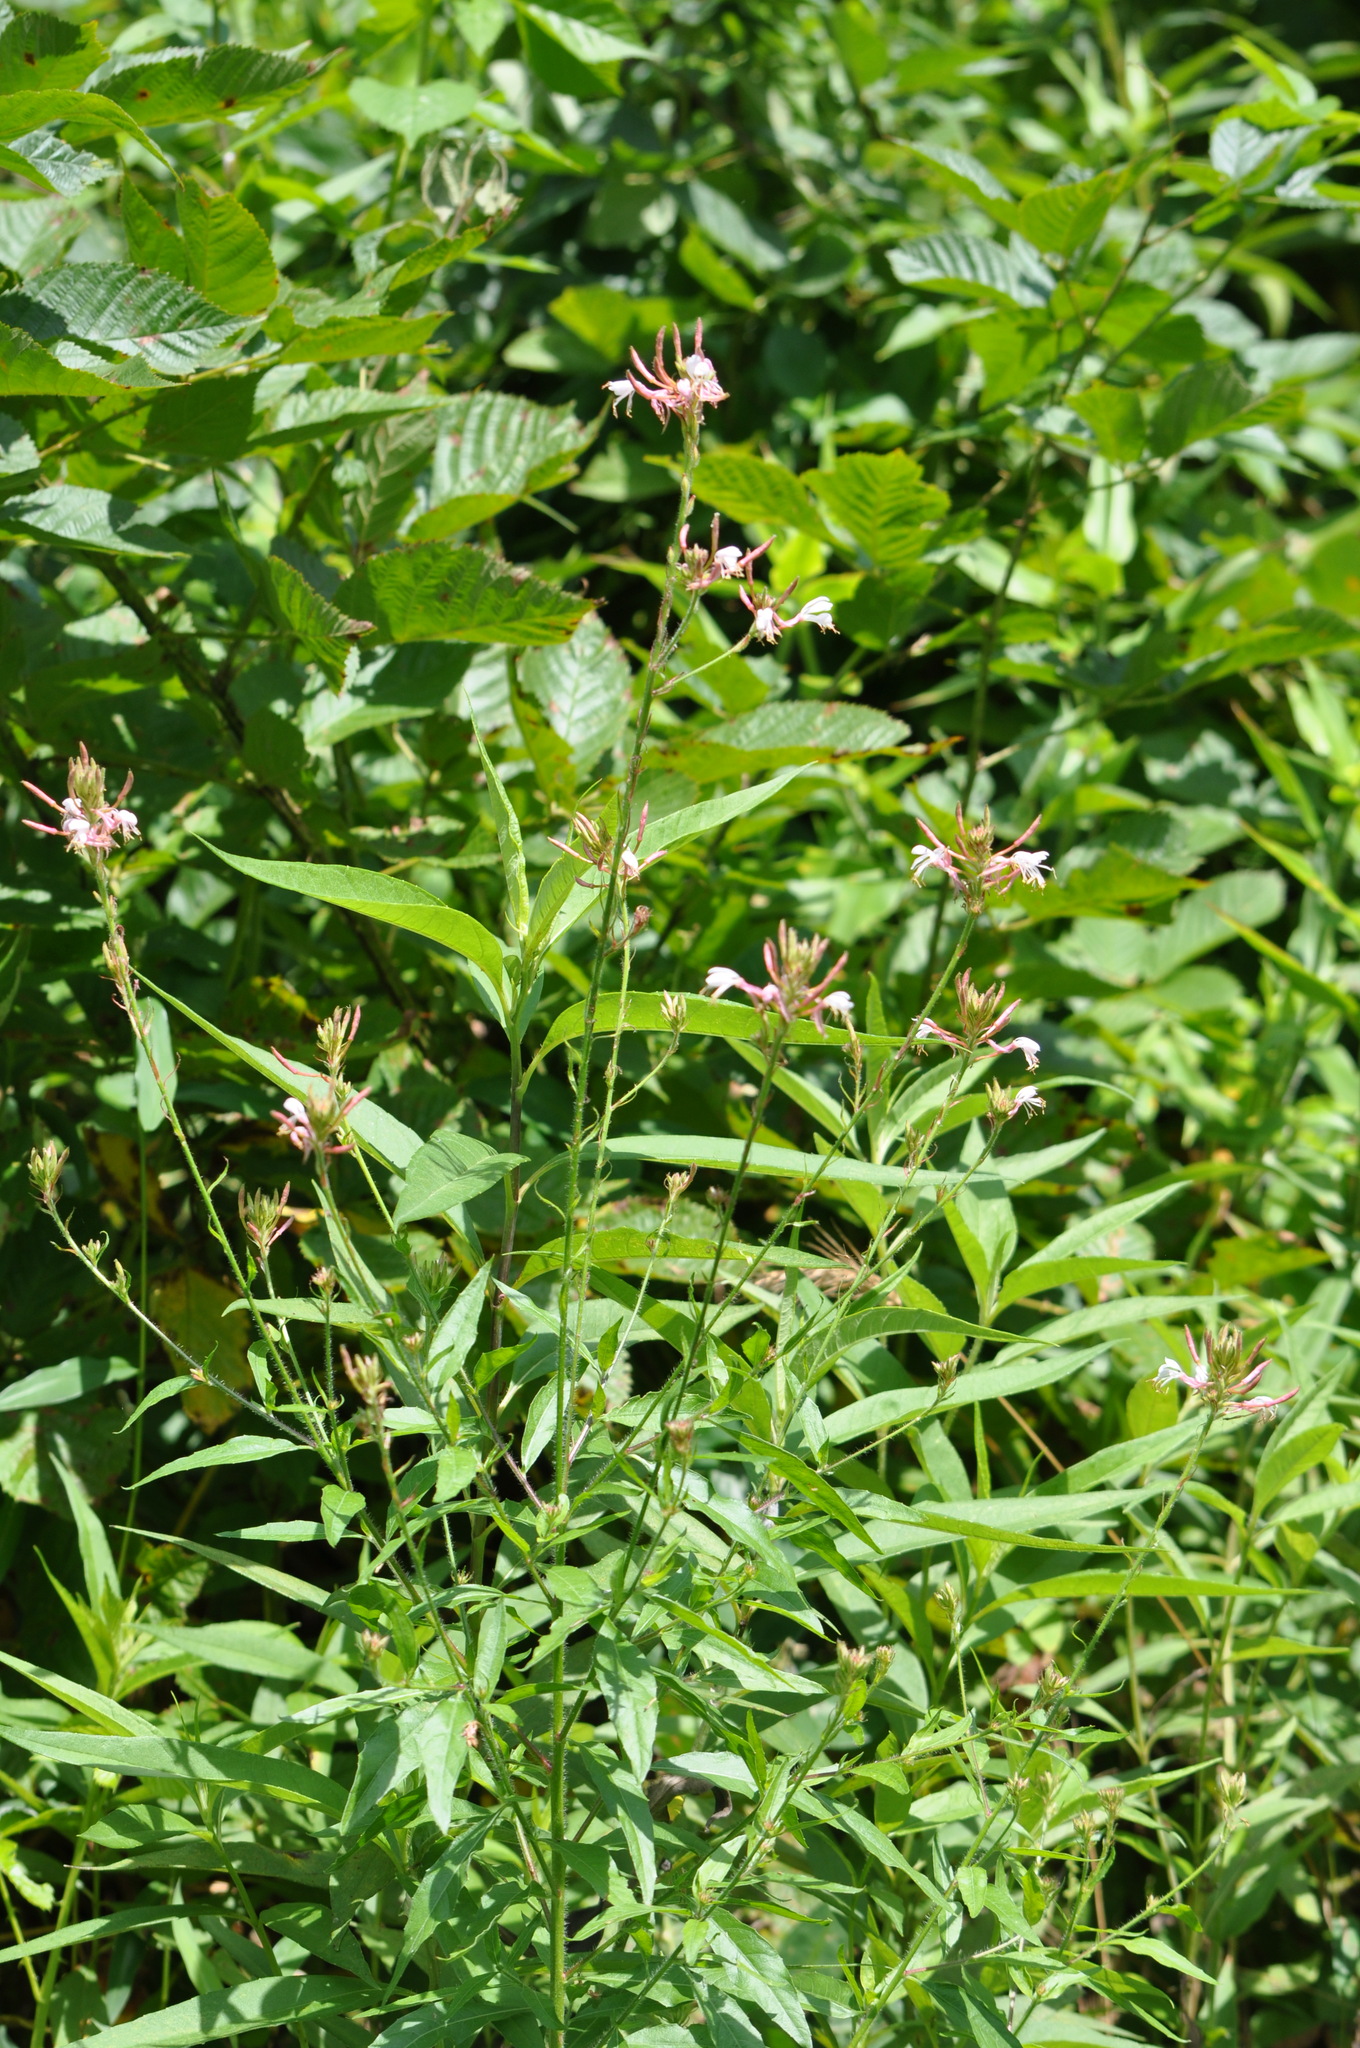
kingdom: Plantae
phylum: Tracheophyta
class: Magnoliopsida
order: Myrtales
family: Onagraceae
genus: Oenothera
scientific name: Oenothera gaura
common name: Biennial beeblossom
